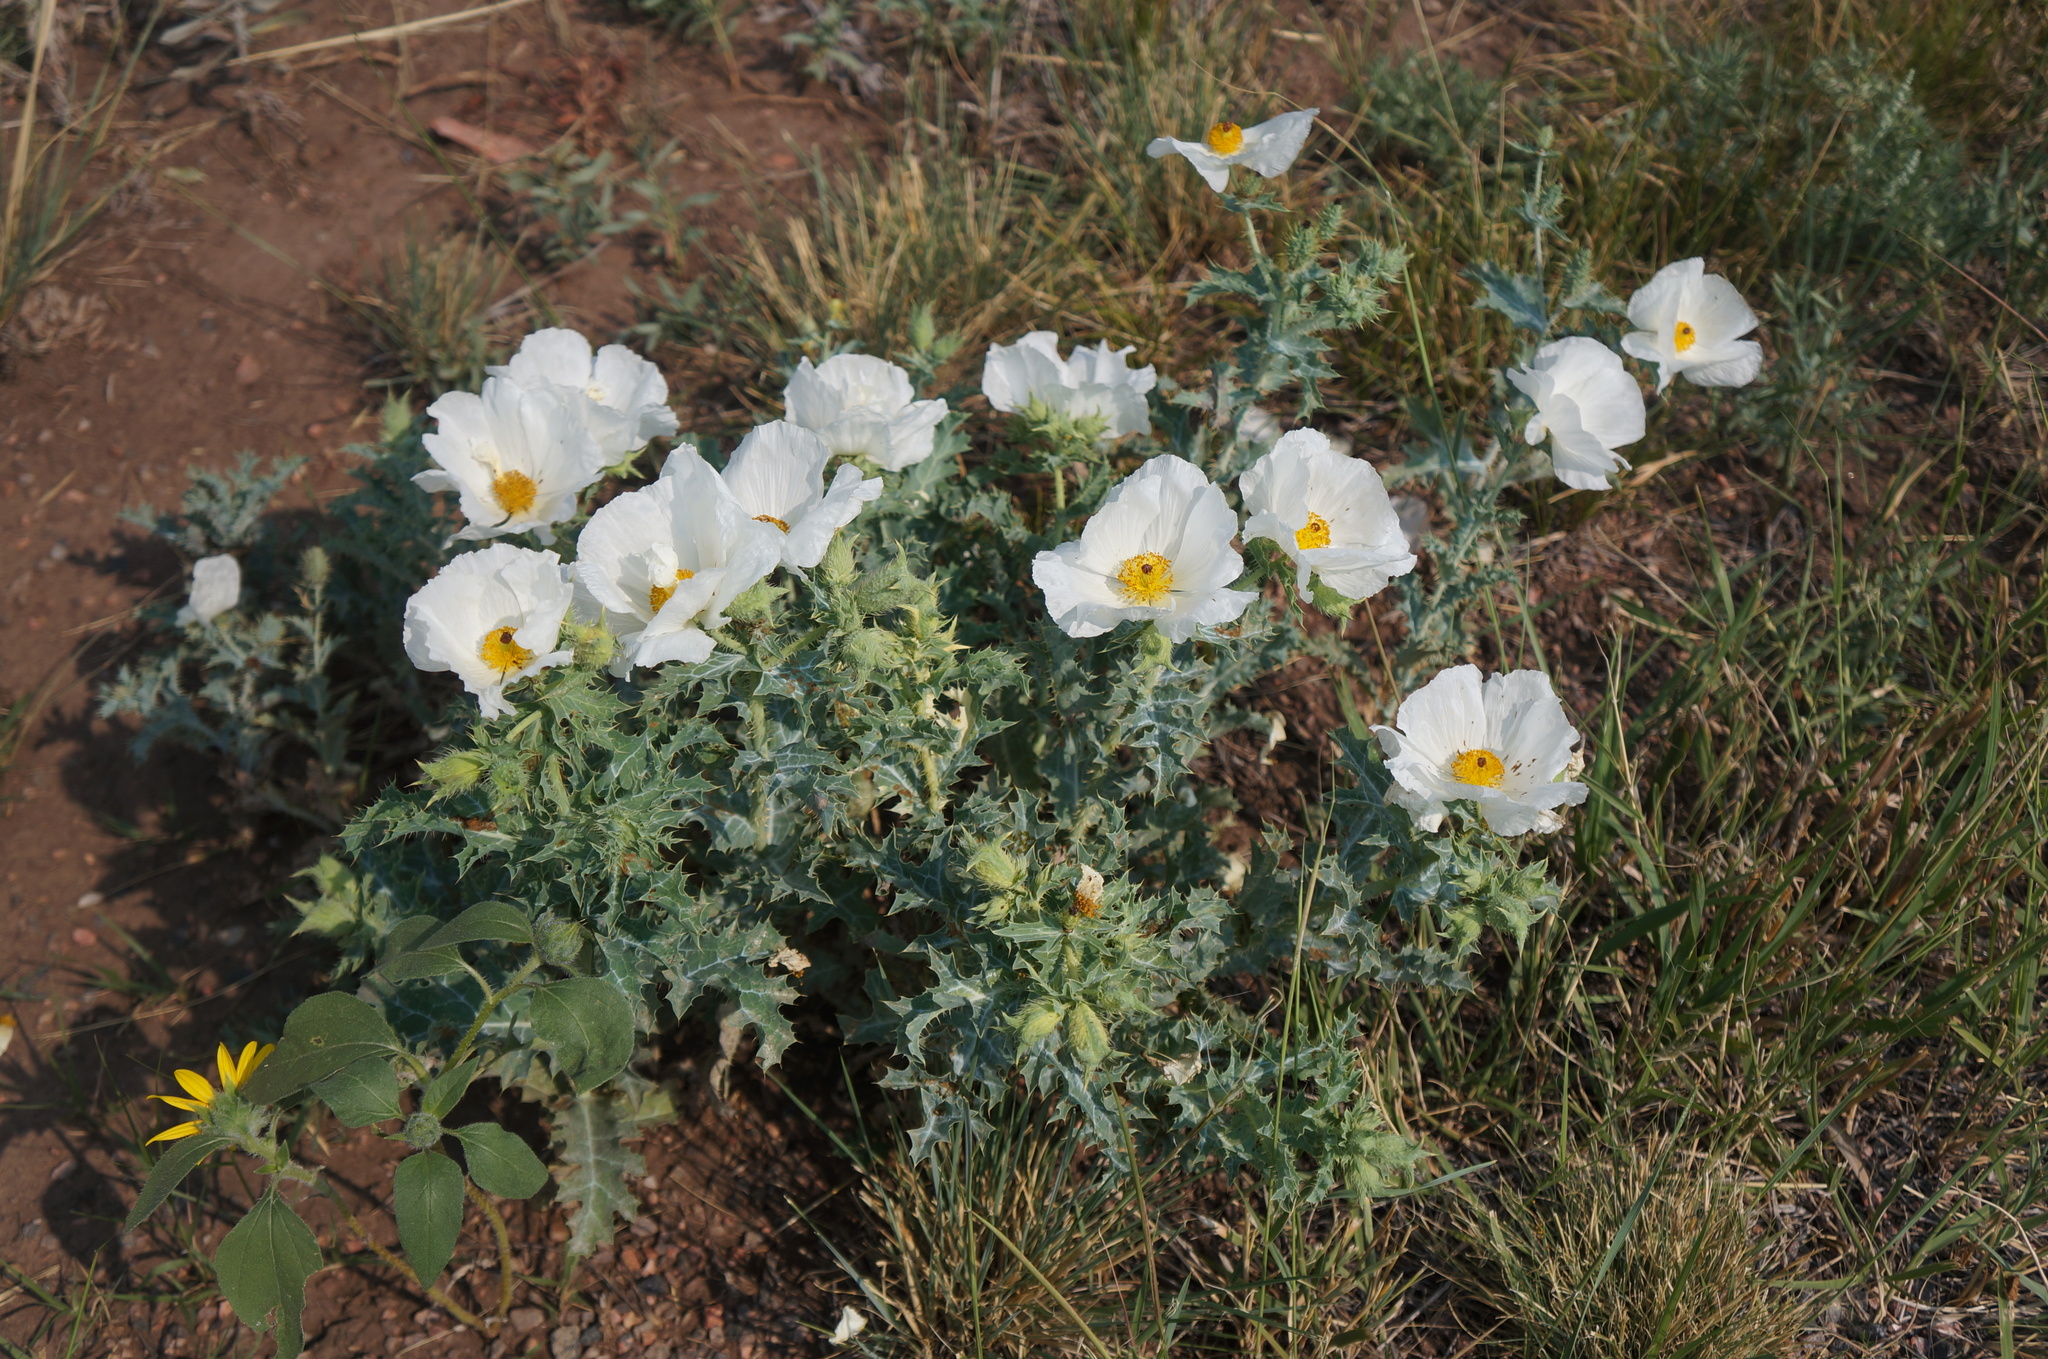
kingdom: Plantae
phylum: Tracheophyta
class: Magnoliopsida
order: Ranunculales
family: Papaveraceae
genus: Argemone
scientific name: Argemone polyanthemos
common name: Plains prickly-poppy
